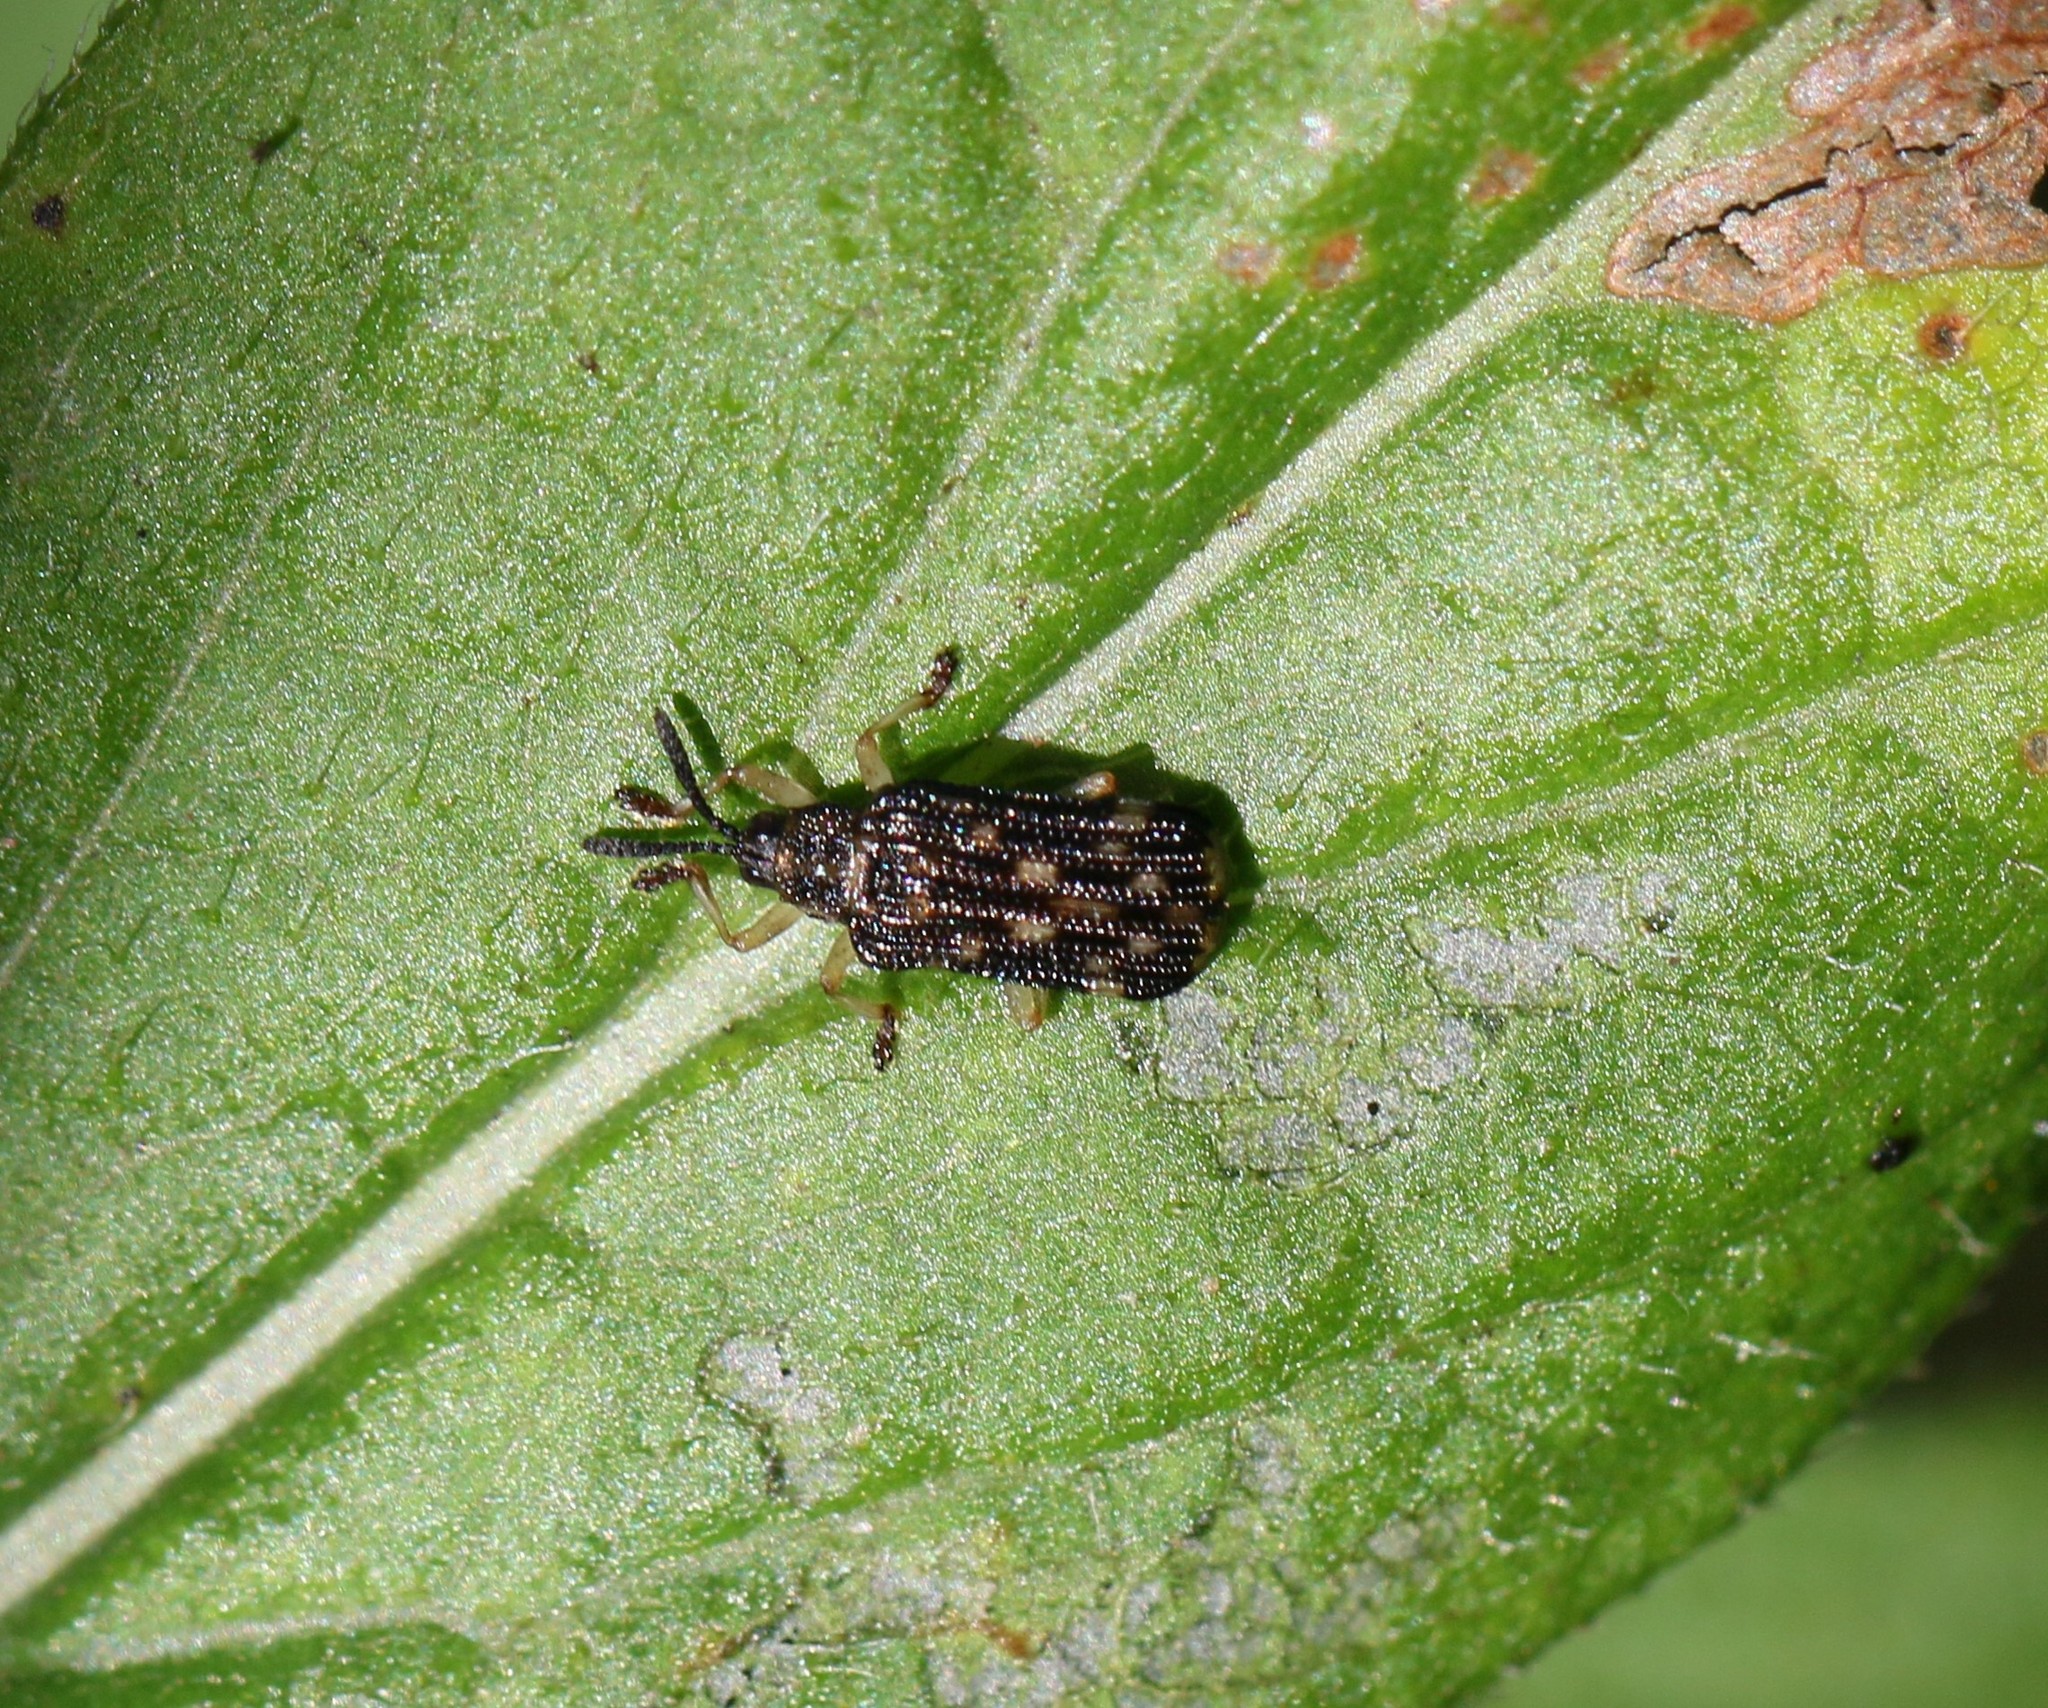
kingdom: Animalia
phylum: Arthropoda
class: Insecta
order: Coleoptera
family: Chrysomelidae
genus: Sumitrosis
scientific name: Sumitrosis inaequalis
